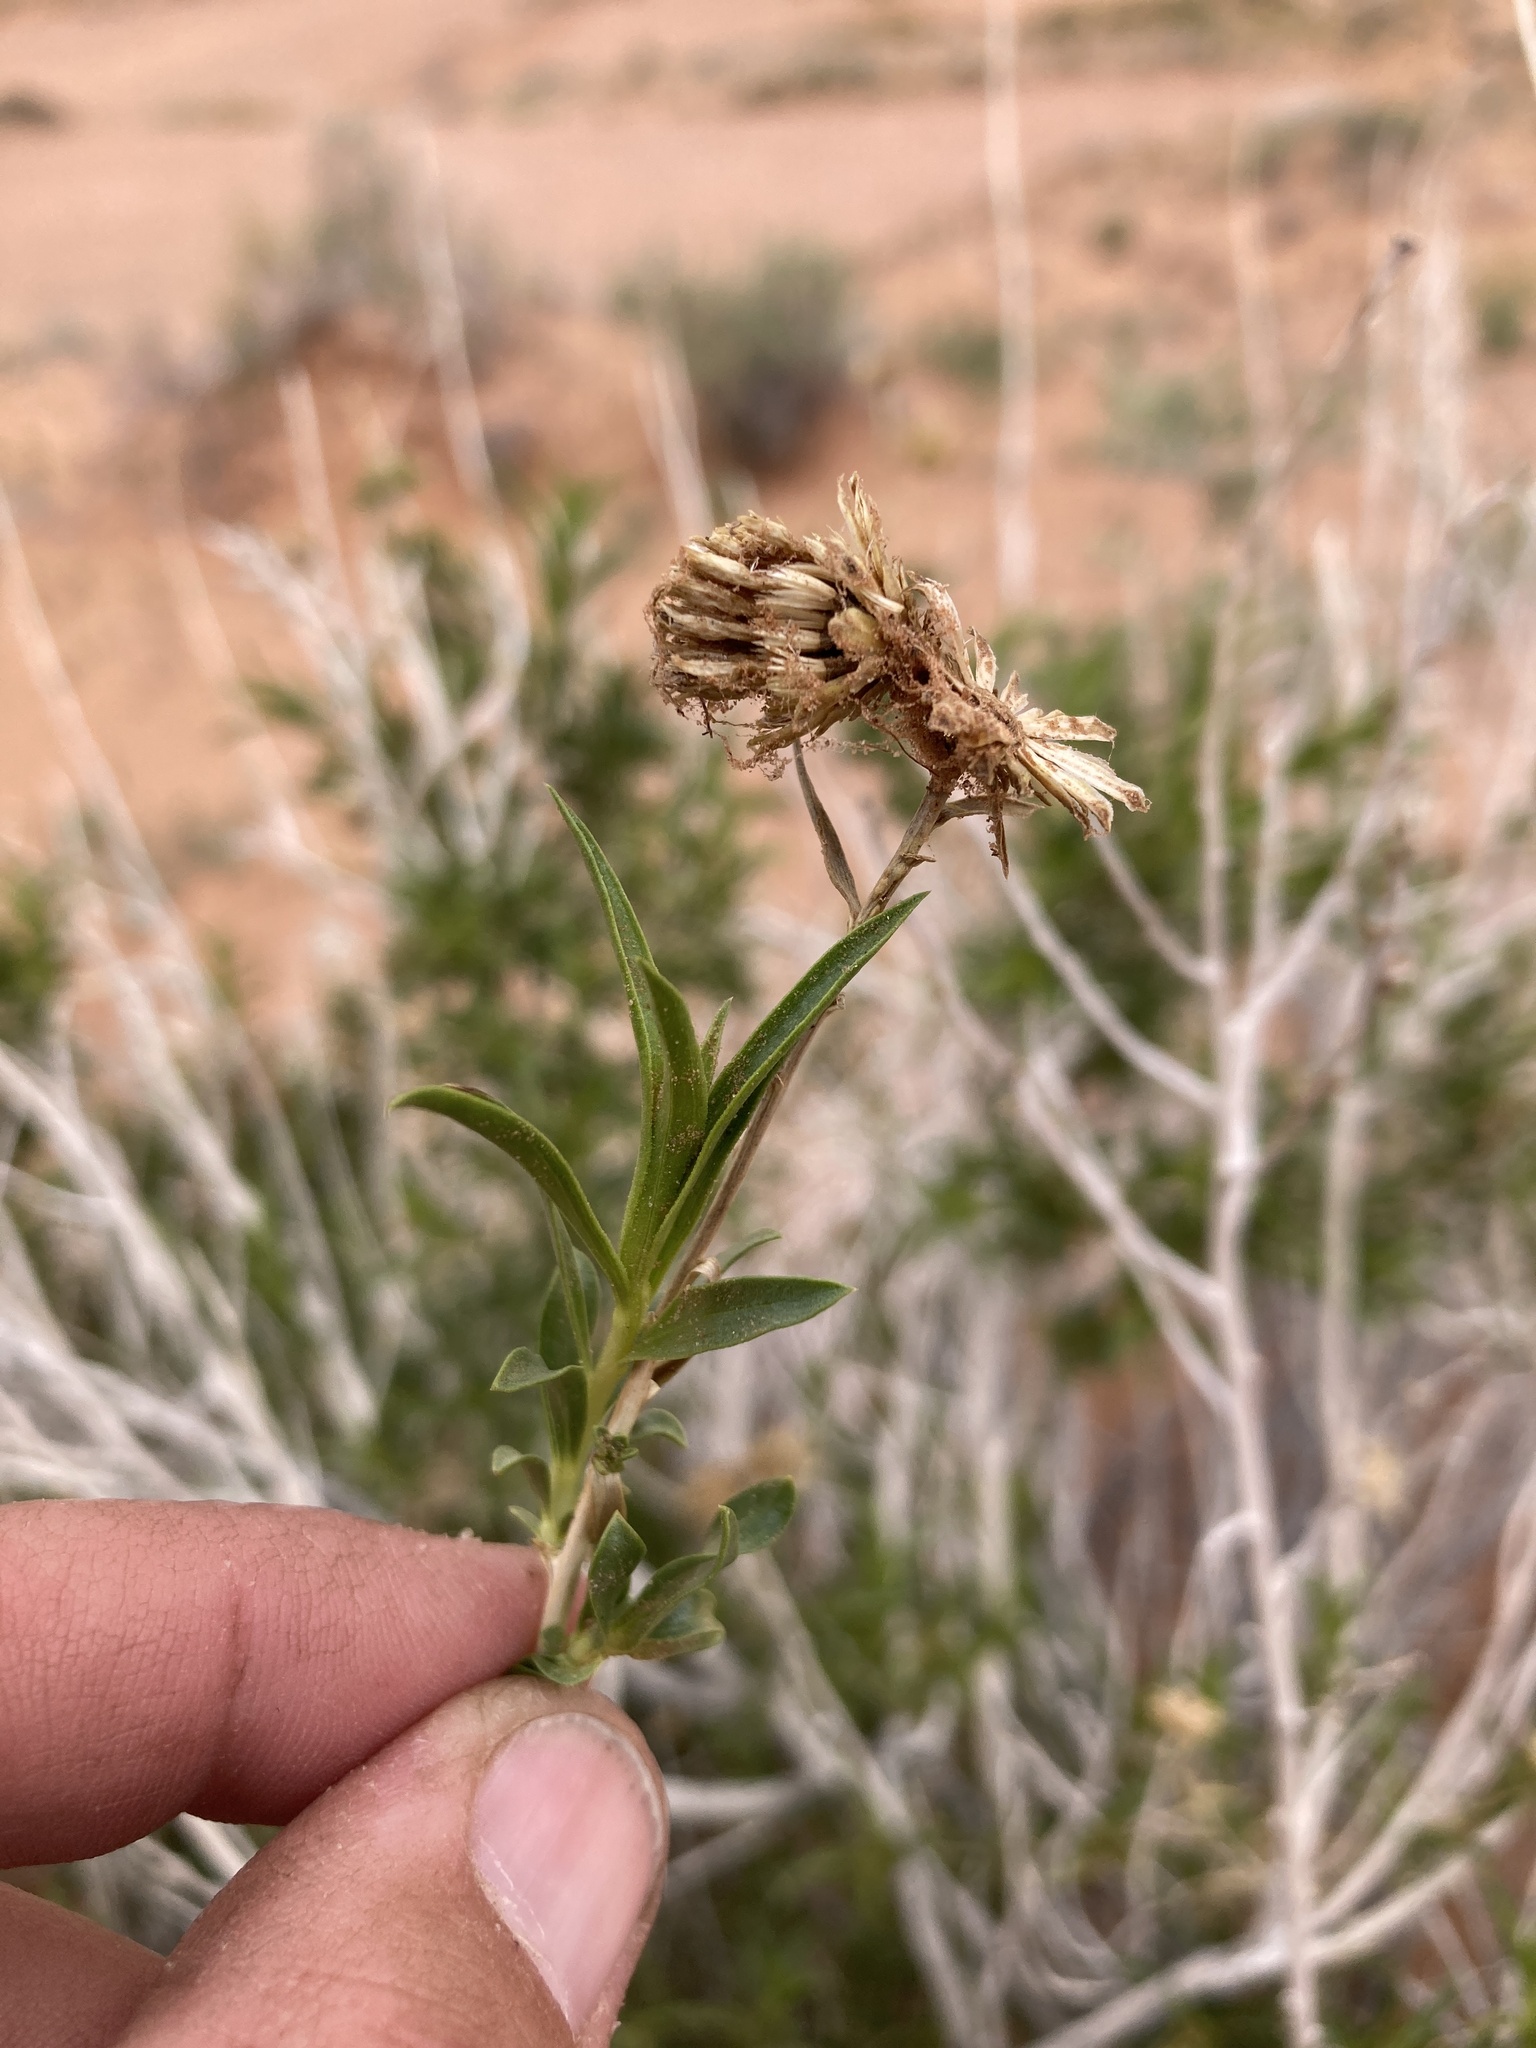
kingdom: Plantae
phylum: Tracheophyta
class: Magnoliopsida
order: Asterales
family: Asteraceae
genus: Chrysothamnus
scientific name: Chrysothamnus stylosus
